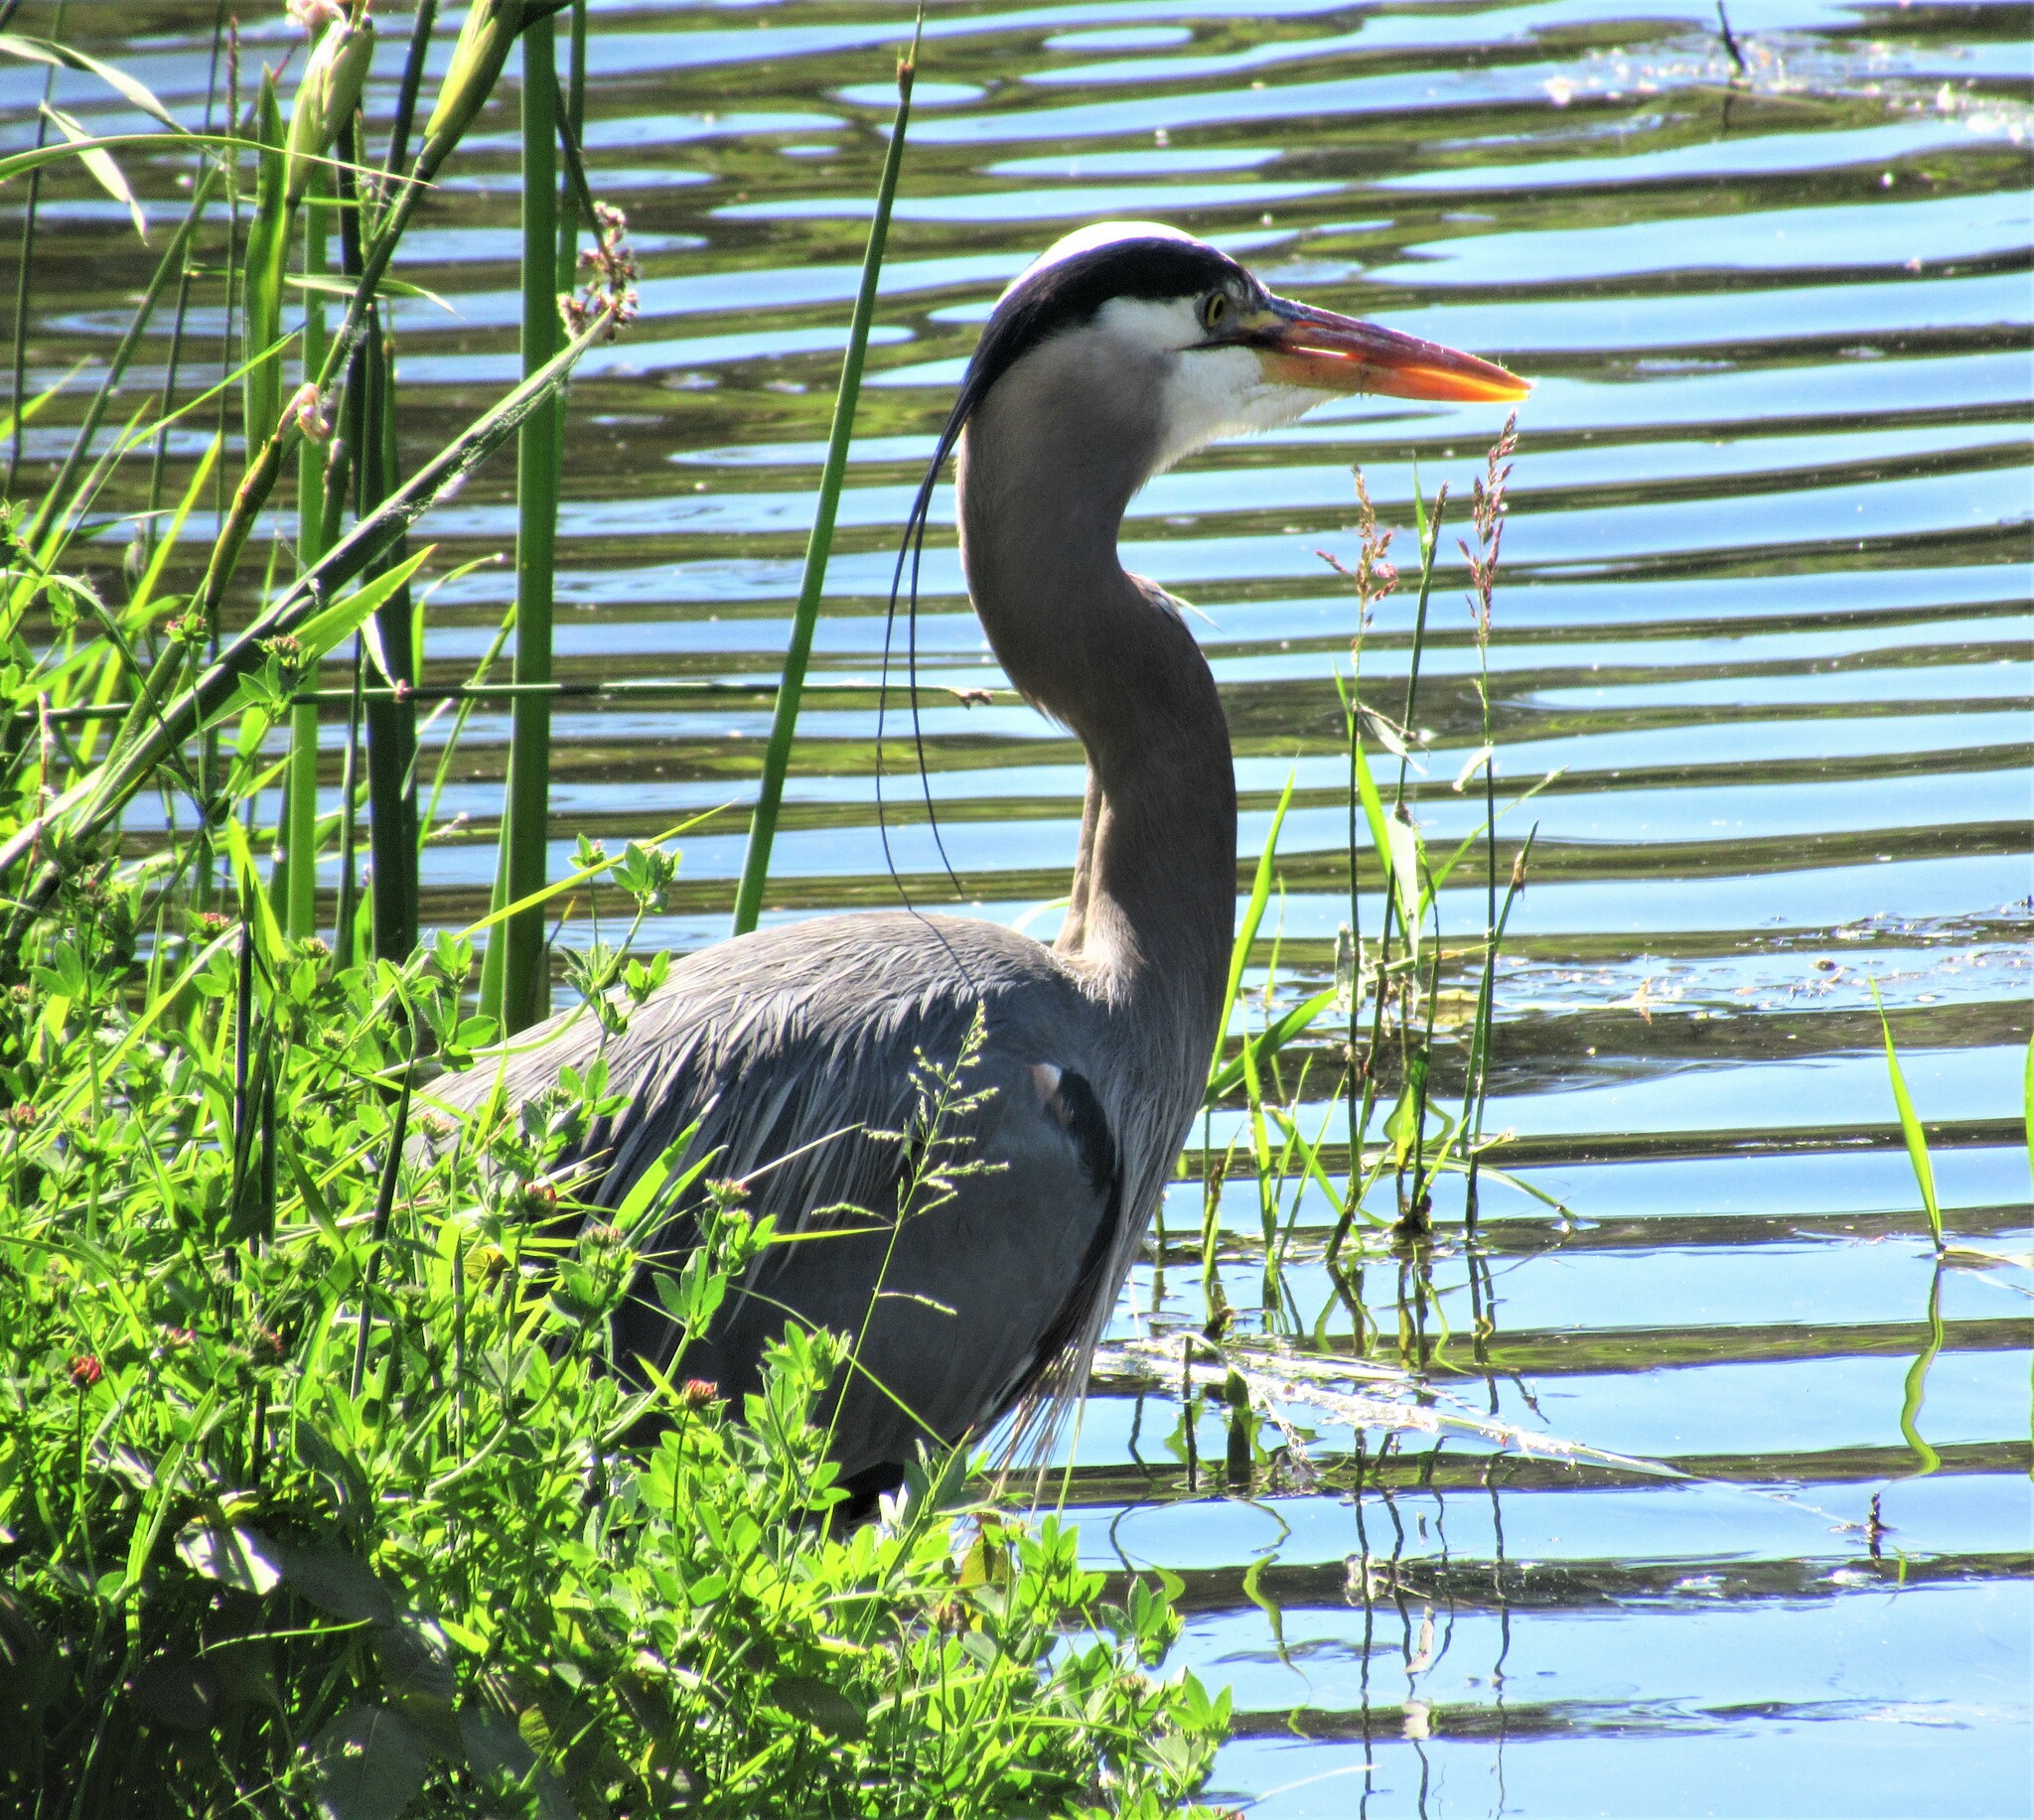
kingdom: Animalia
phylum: Chordata
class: Aves
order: Pelecaniformes
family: Ardeidae
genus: Ardea
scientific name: Ardea herodias
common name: Great blue heron
